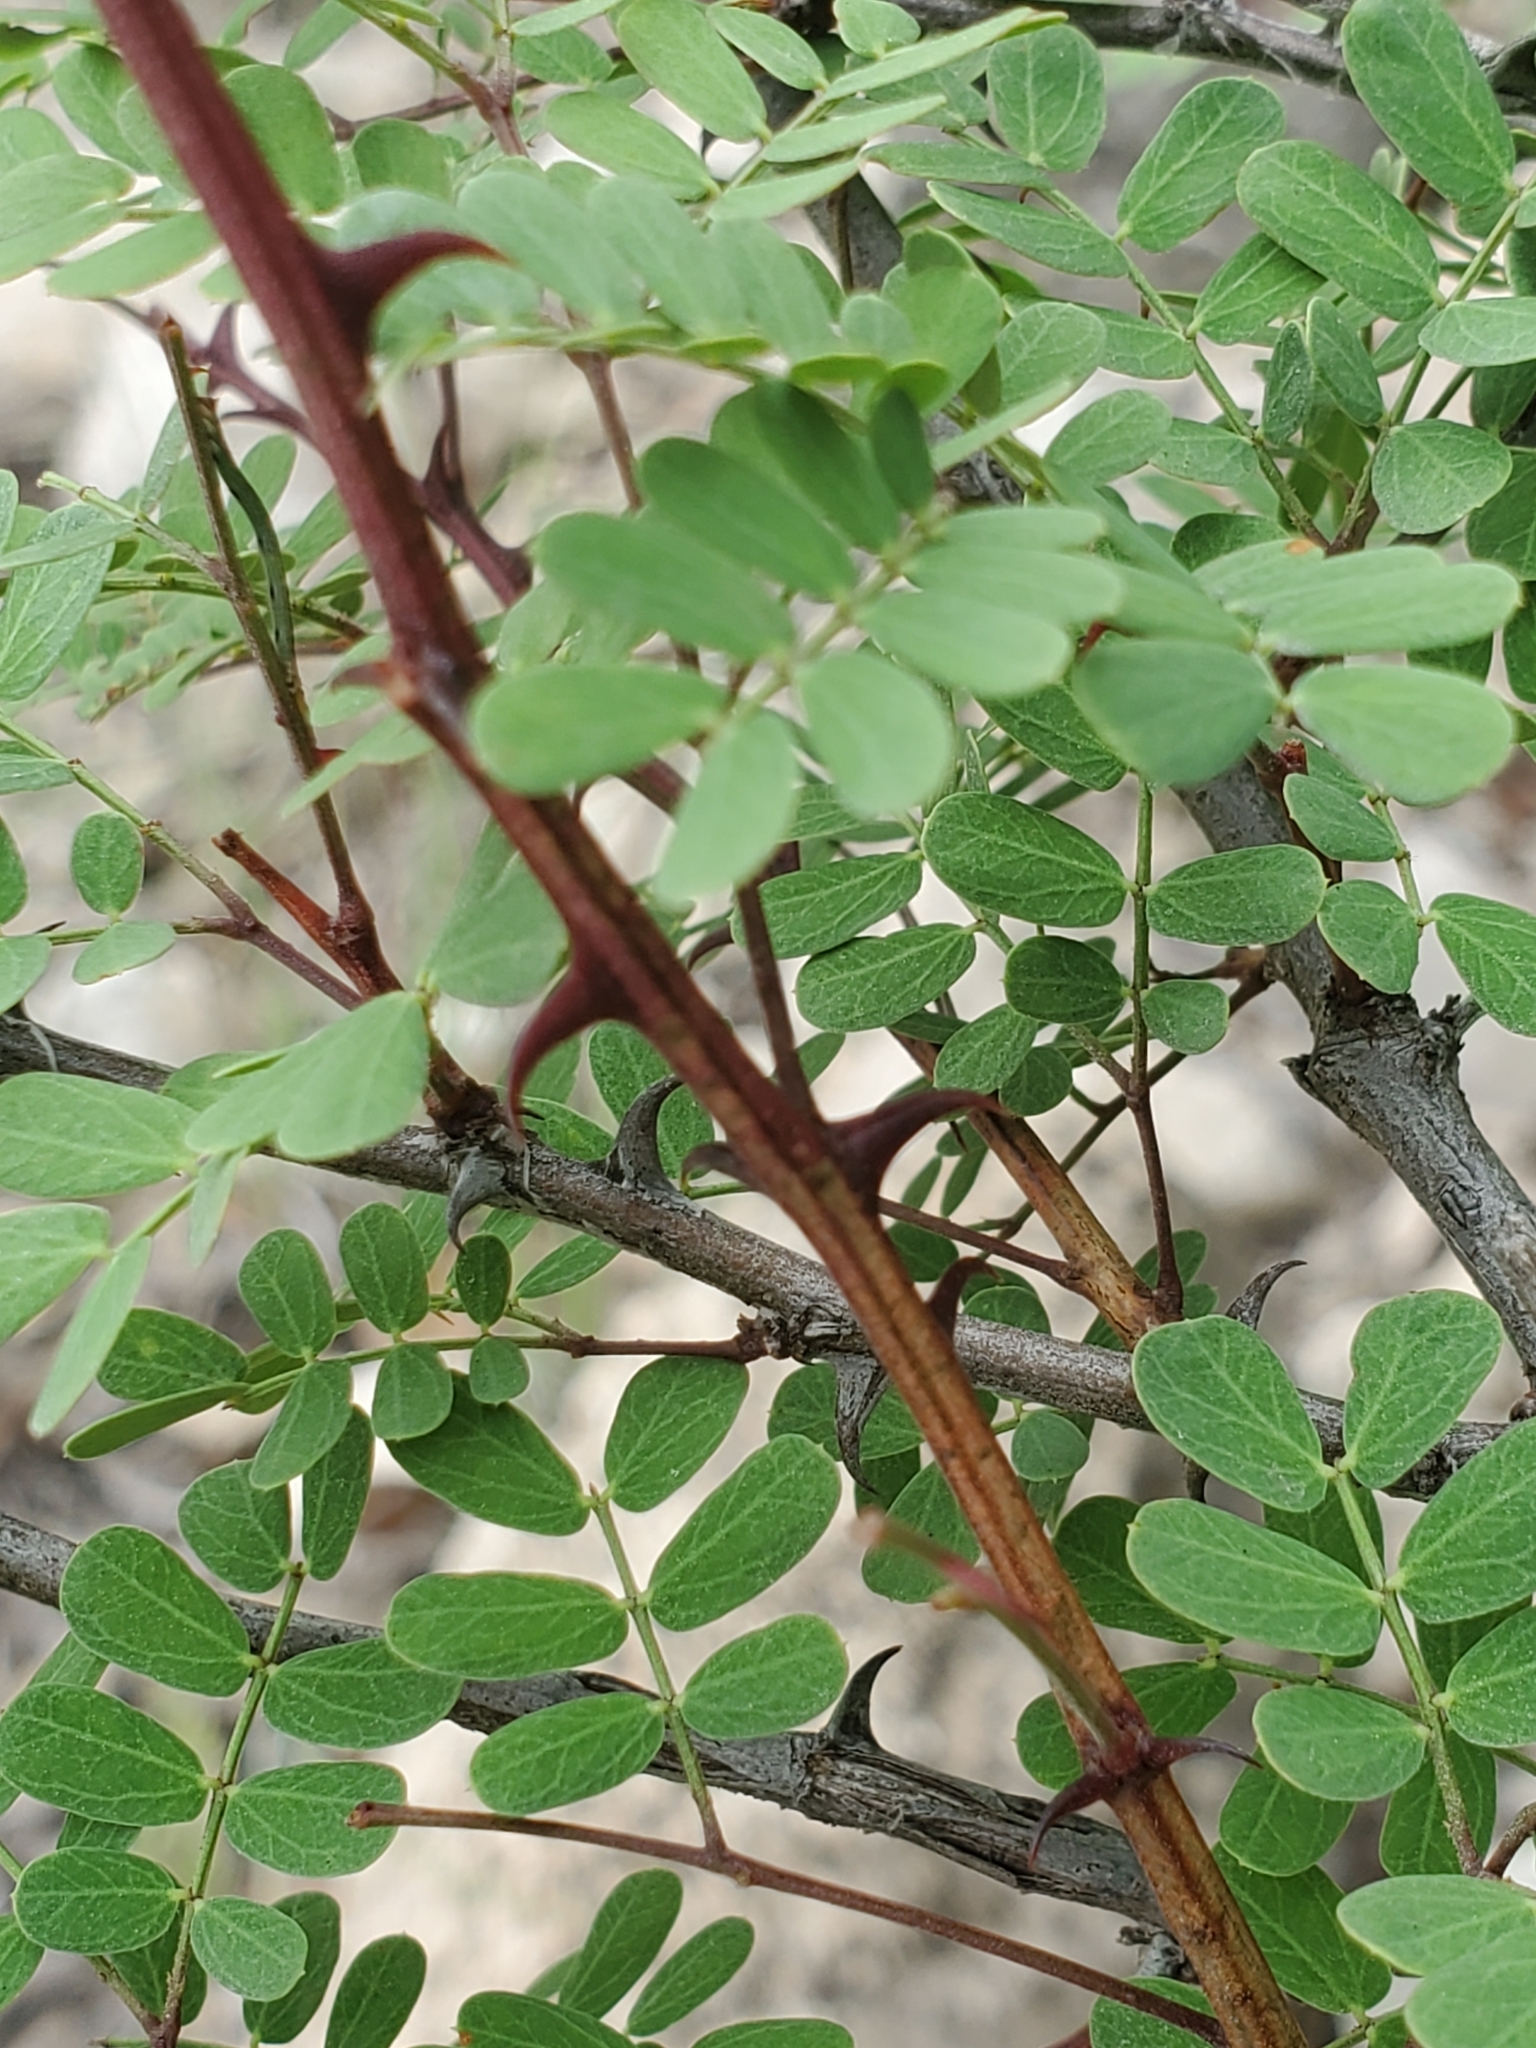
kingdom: Plantae
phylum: Tracheophyta
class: Magnoliopsida
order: Fabales
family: Fabaceae
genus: Senegalia
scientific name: Senegalia roemeriana
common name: Roemer's acacia
